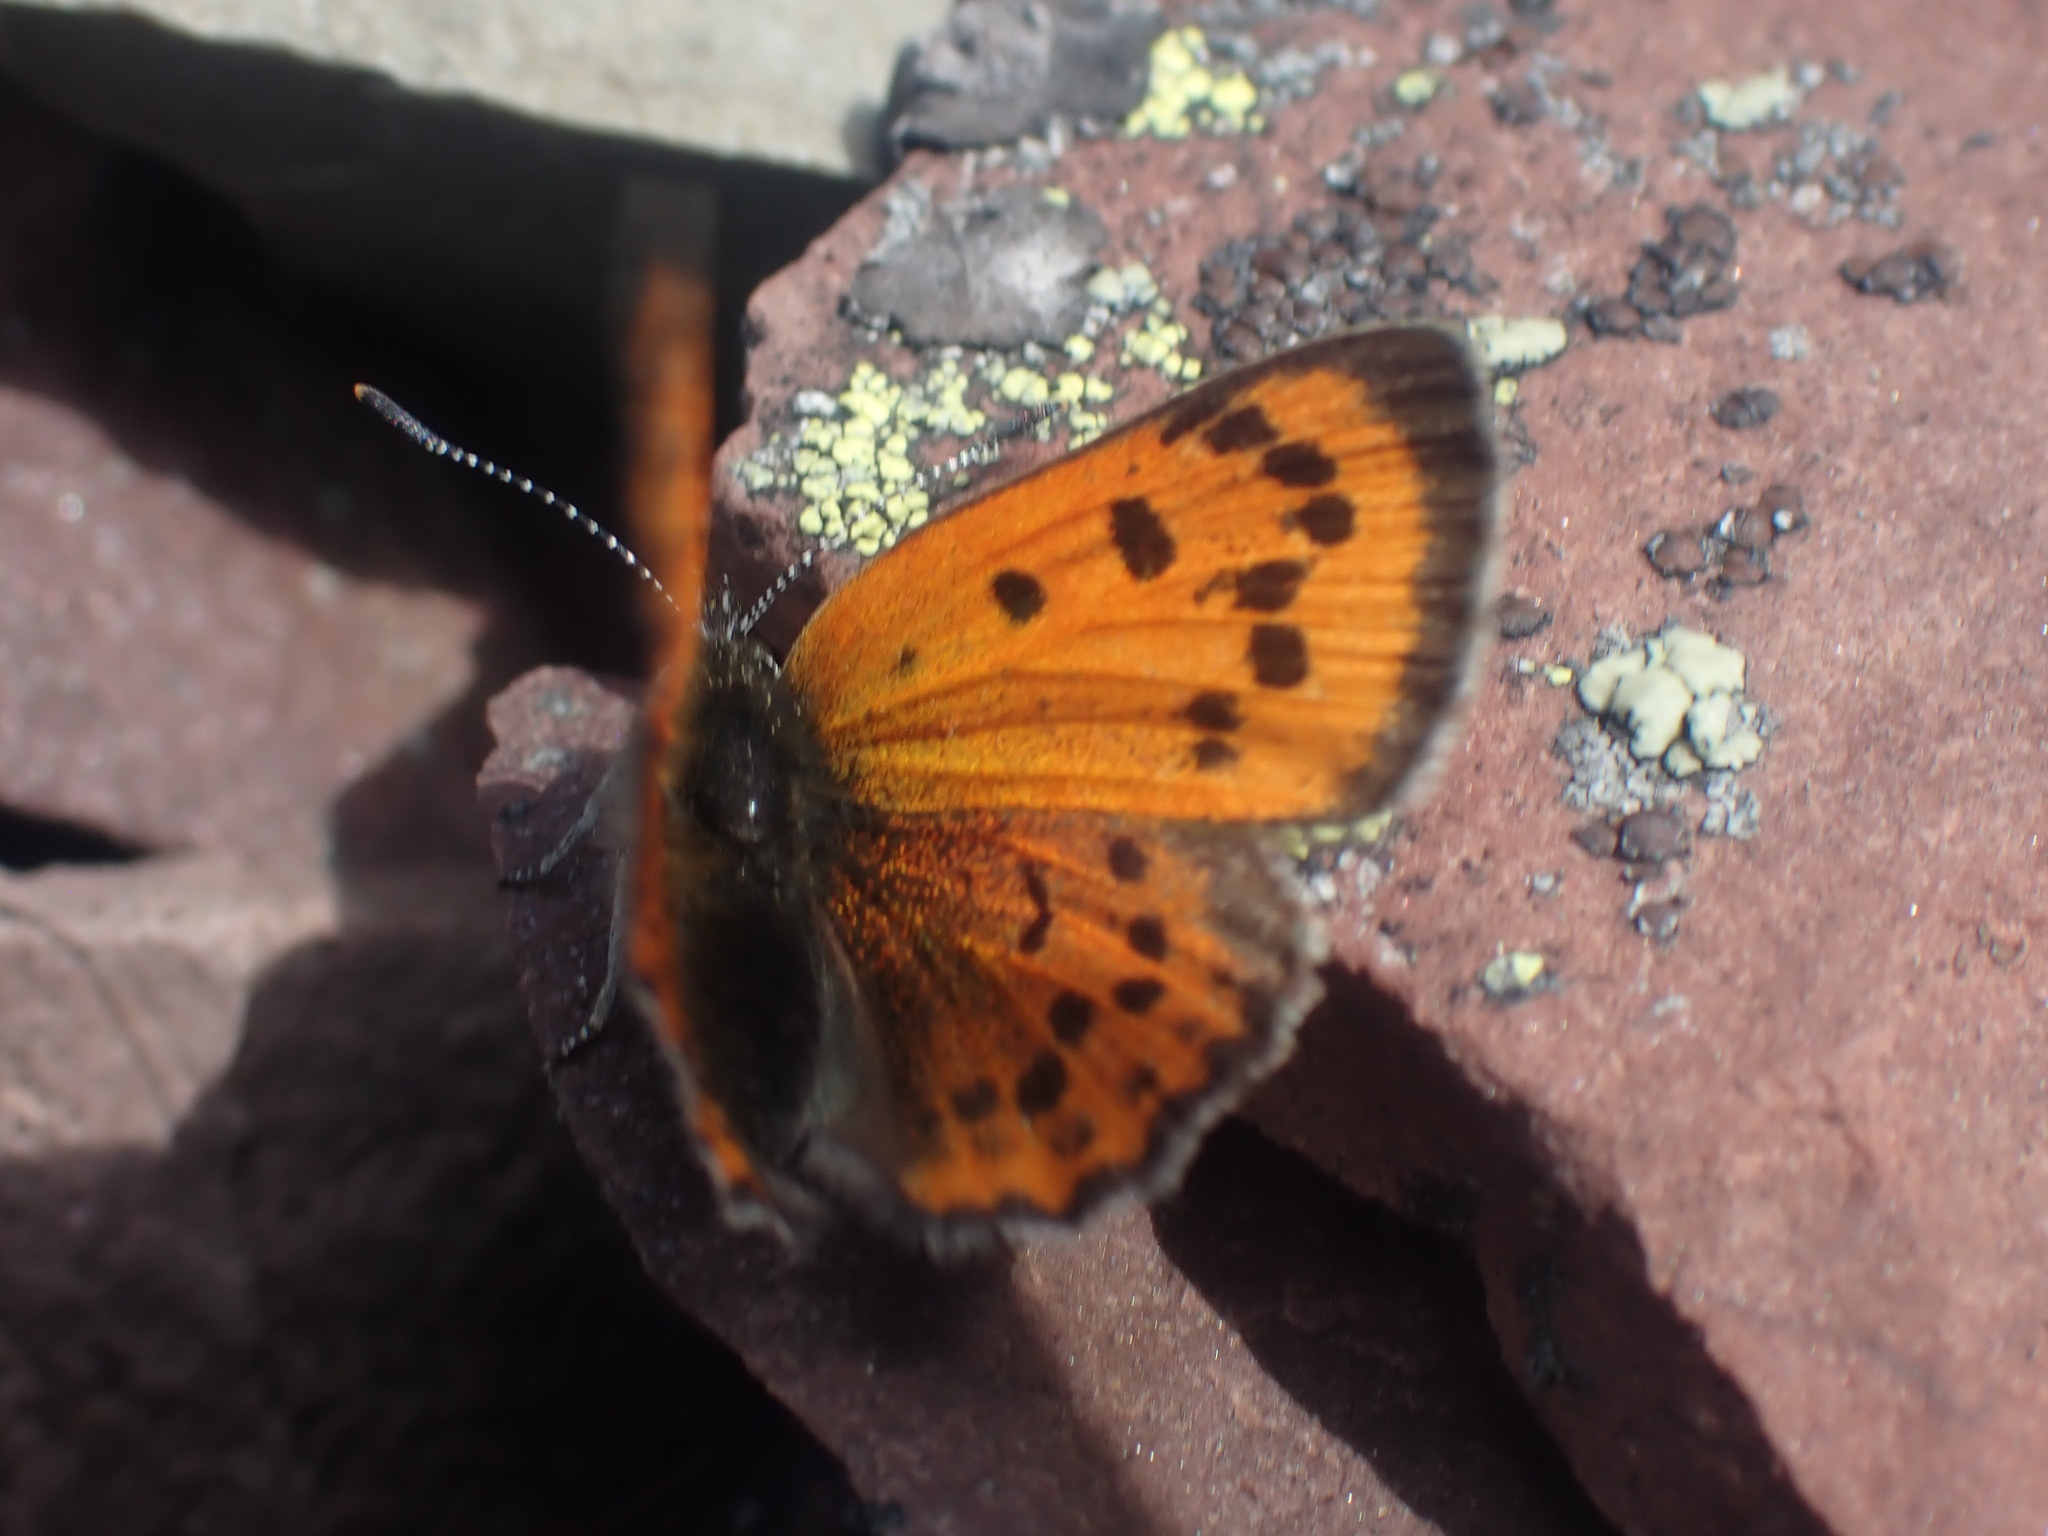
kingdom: Animalia
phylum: Arthropoda
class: Insecta
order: Lepidoptera
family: Lycaenidae
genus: Lycaena
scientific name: Lycaena cupreus
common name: Lustrous copper
